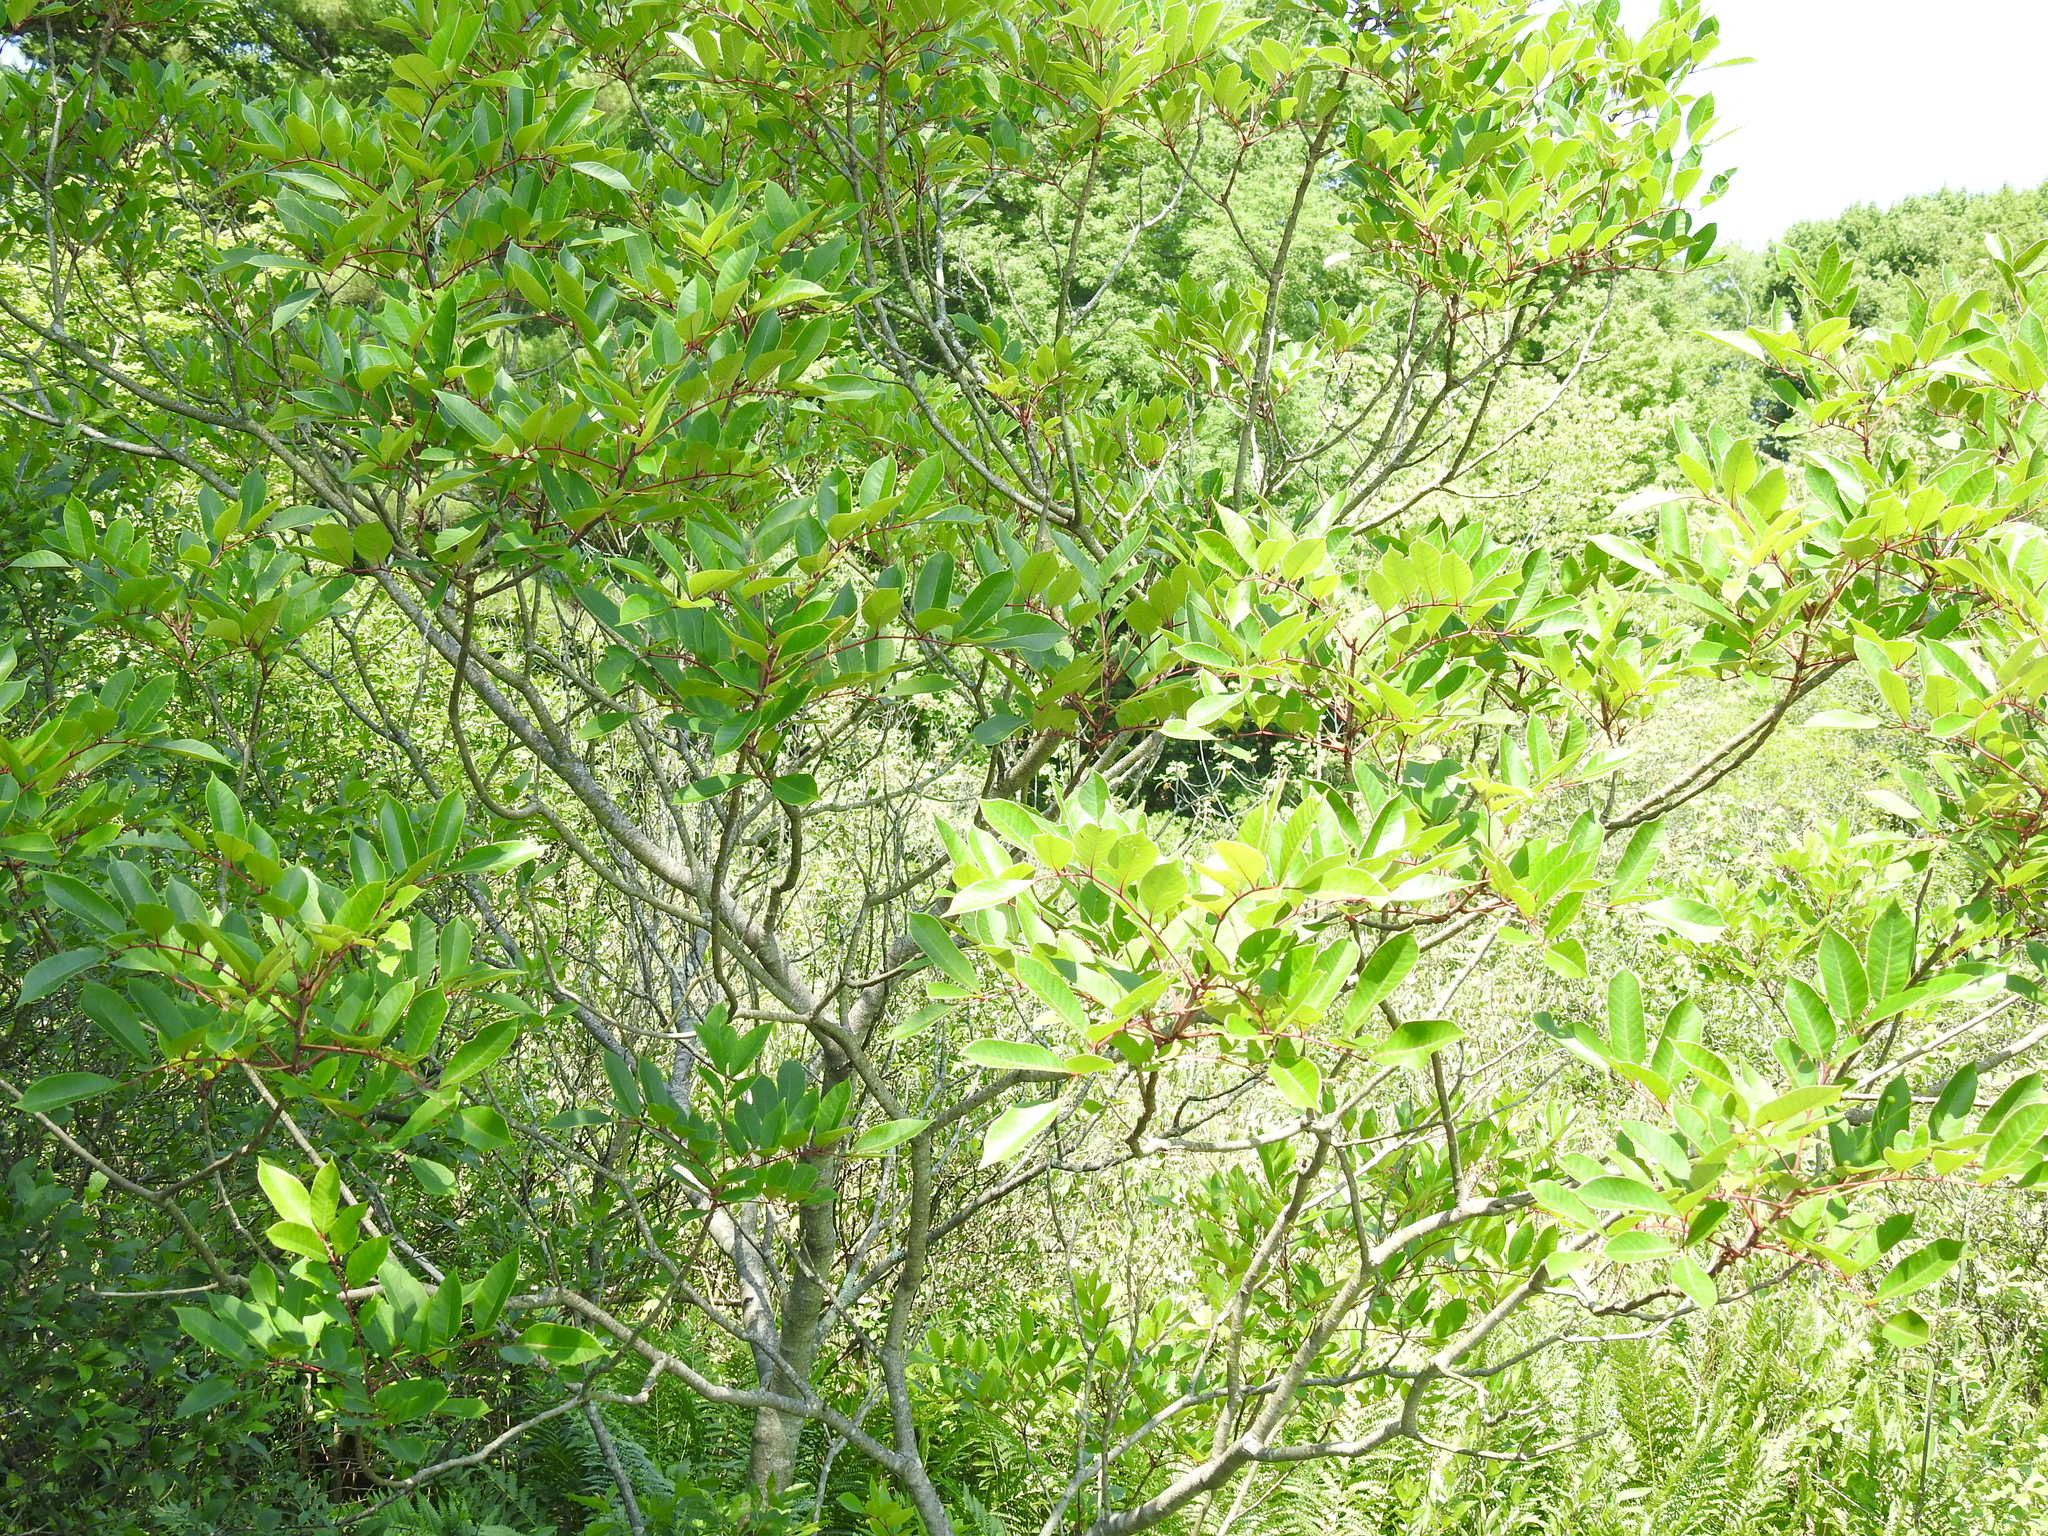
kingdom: Plantae
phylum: Tracheophyta
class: Magnoliopsida
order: Sapindales
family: Anacardiaceae
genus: Toxicodendron
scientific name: Toxicodendron vernix
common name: Poison sumac
